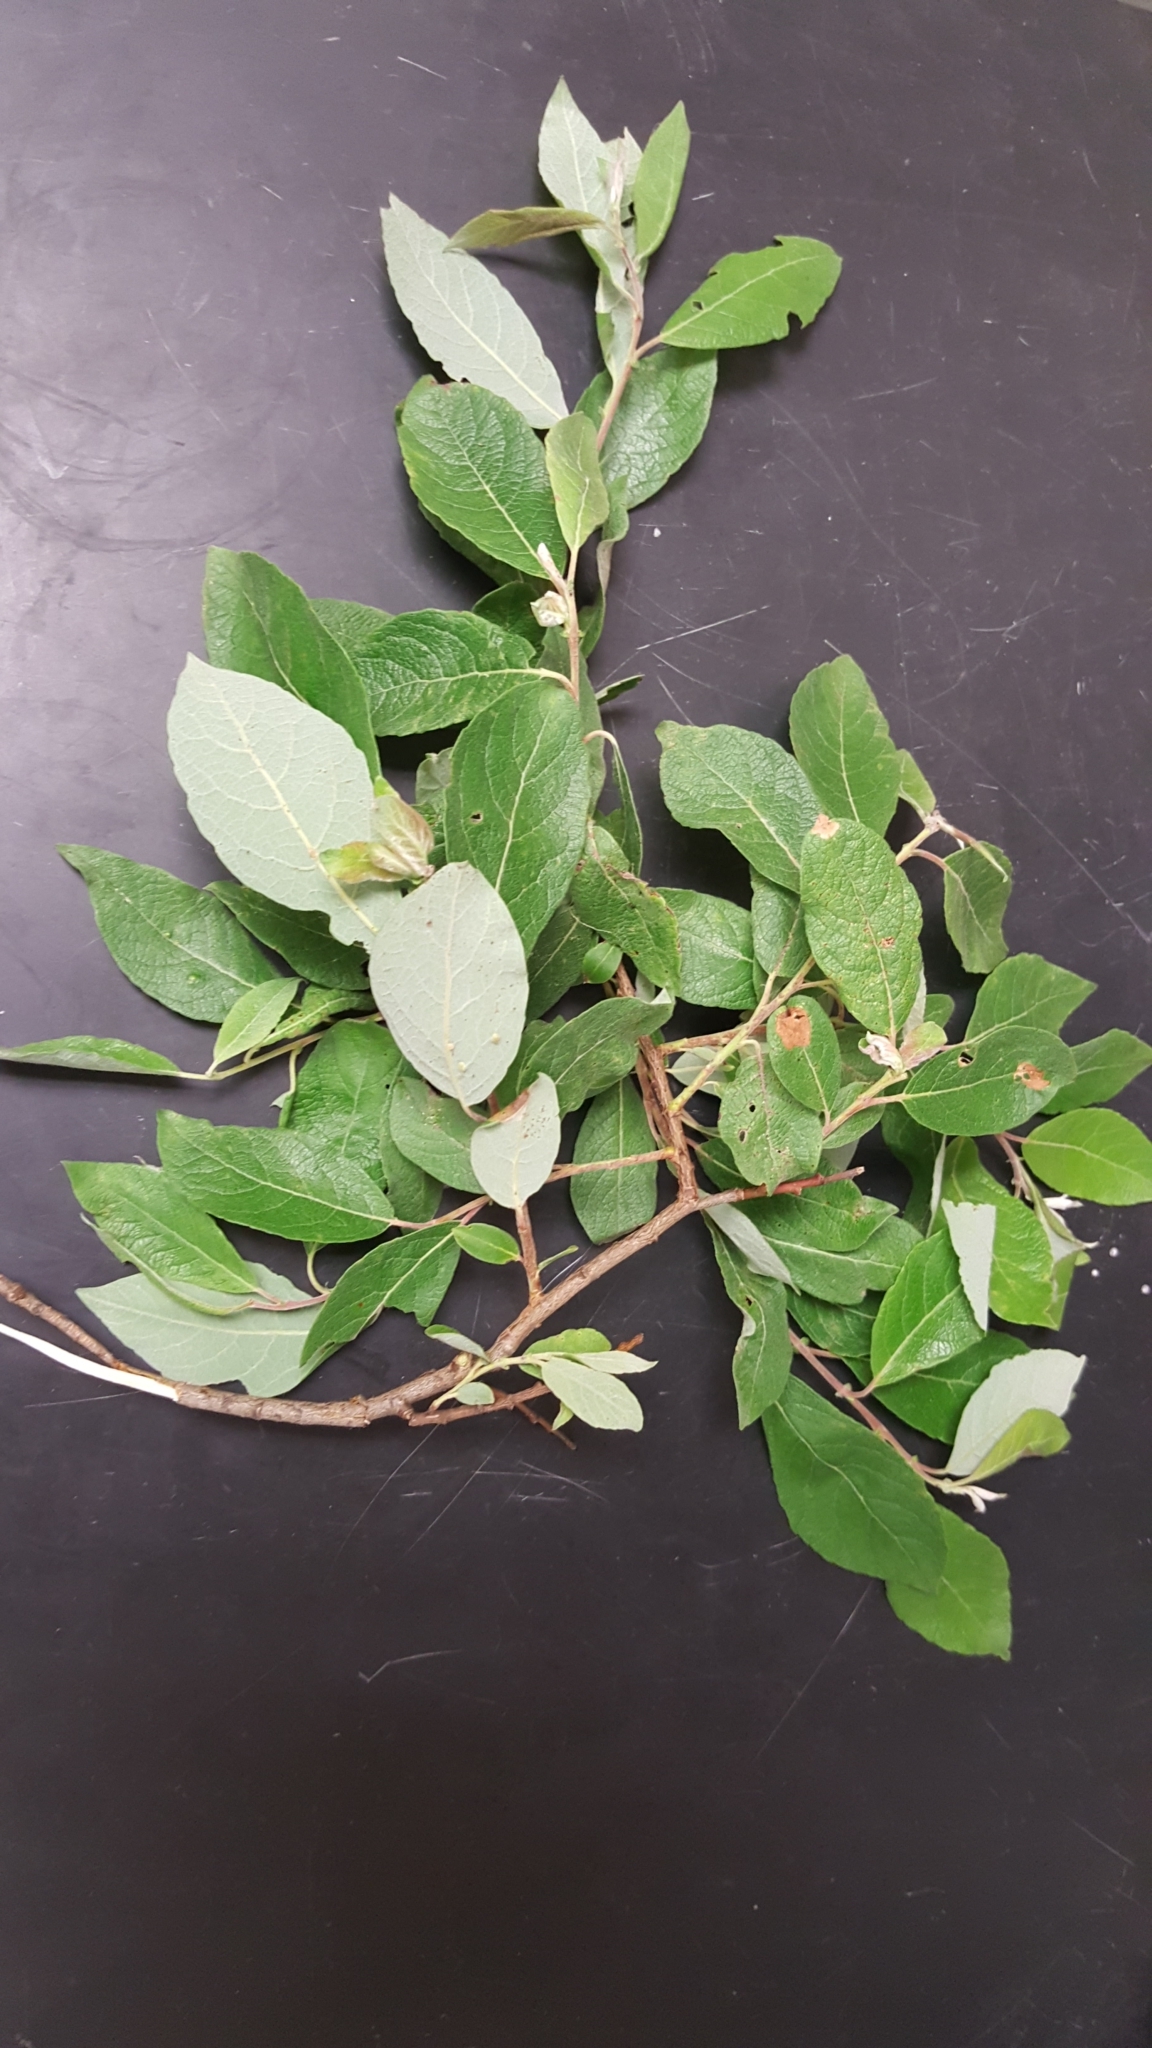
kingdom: Plantae
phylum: Tracheophyta
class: Magnoliopsida
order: Malpighiales
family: Salicaceae
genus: Salix
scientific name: Salix bebbiana
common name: Bebb's willow
